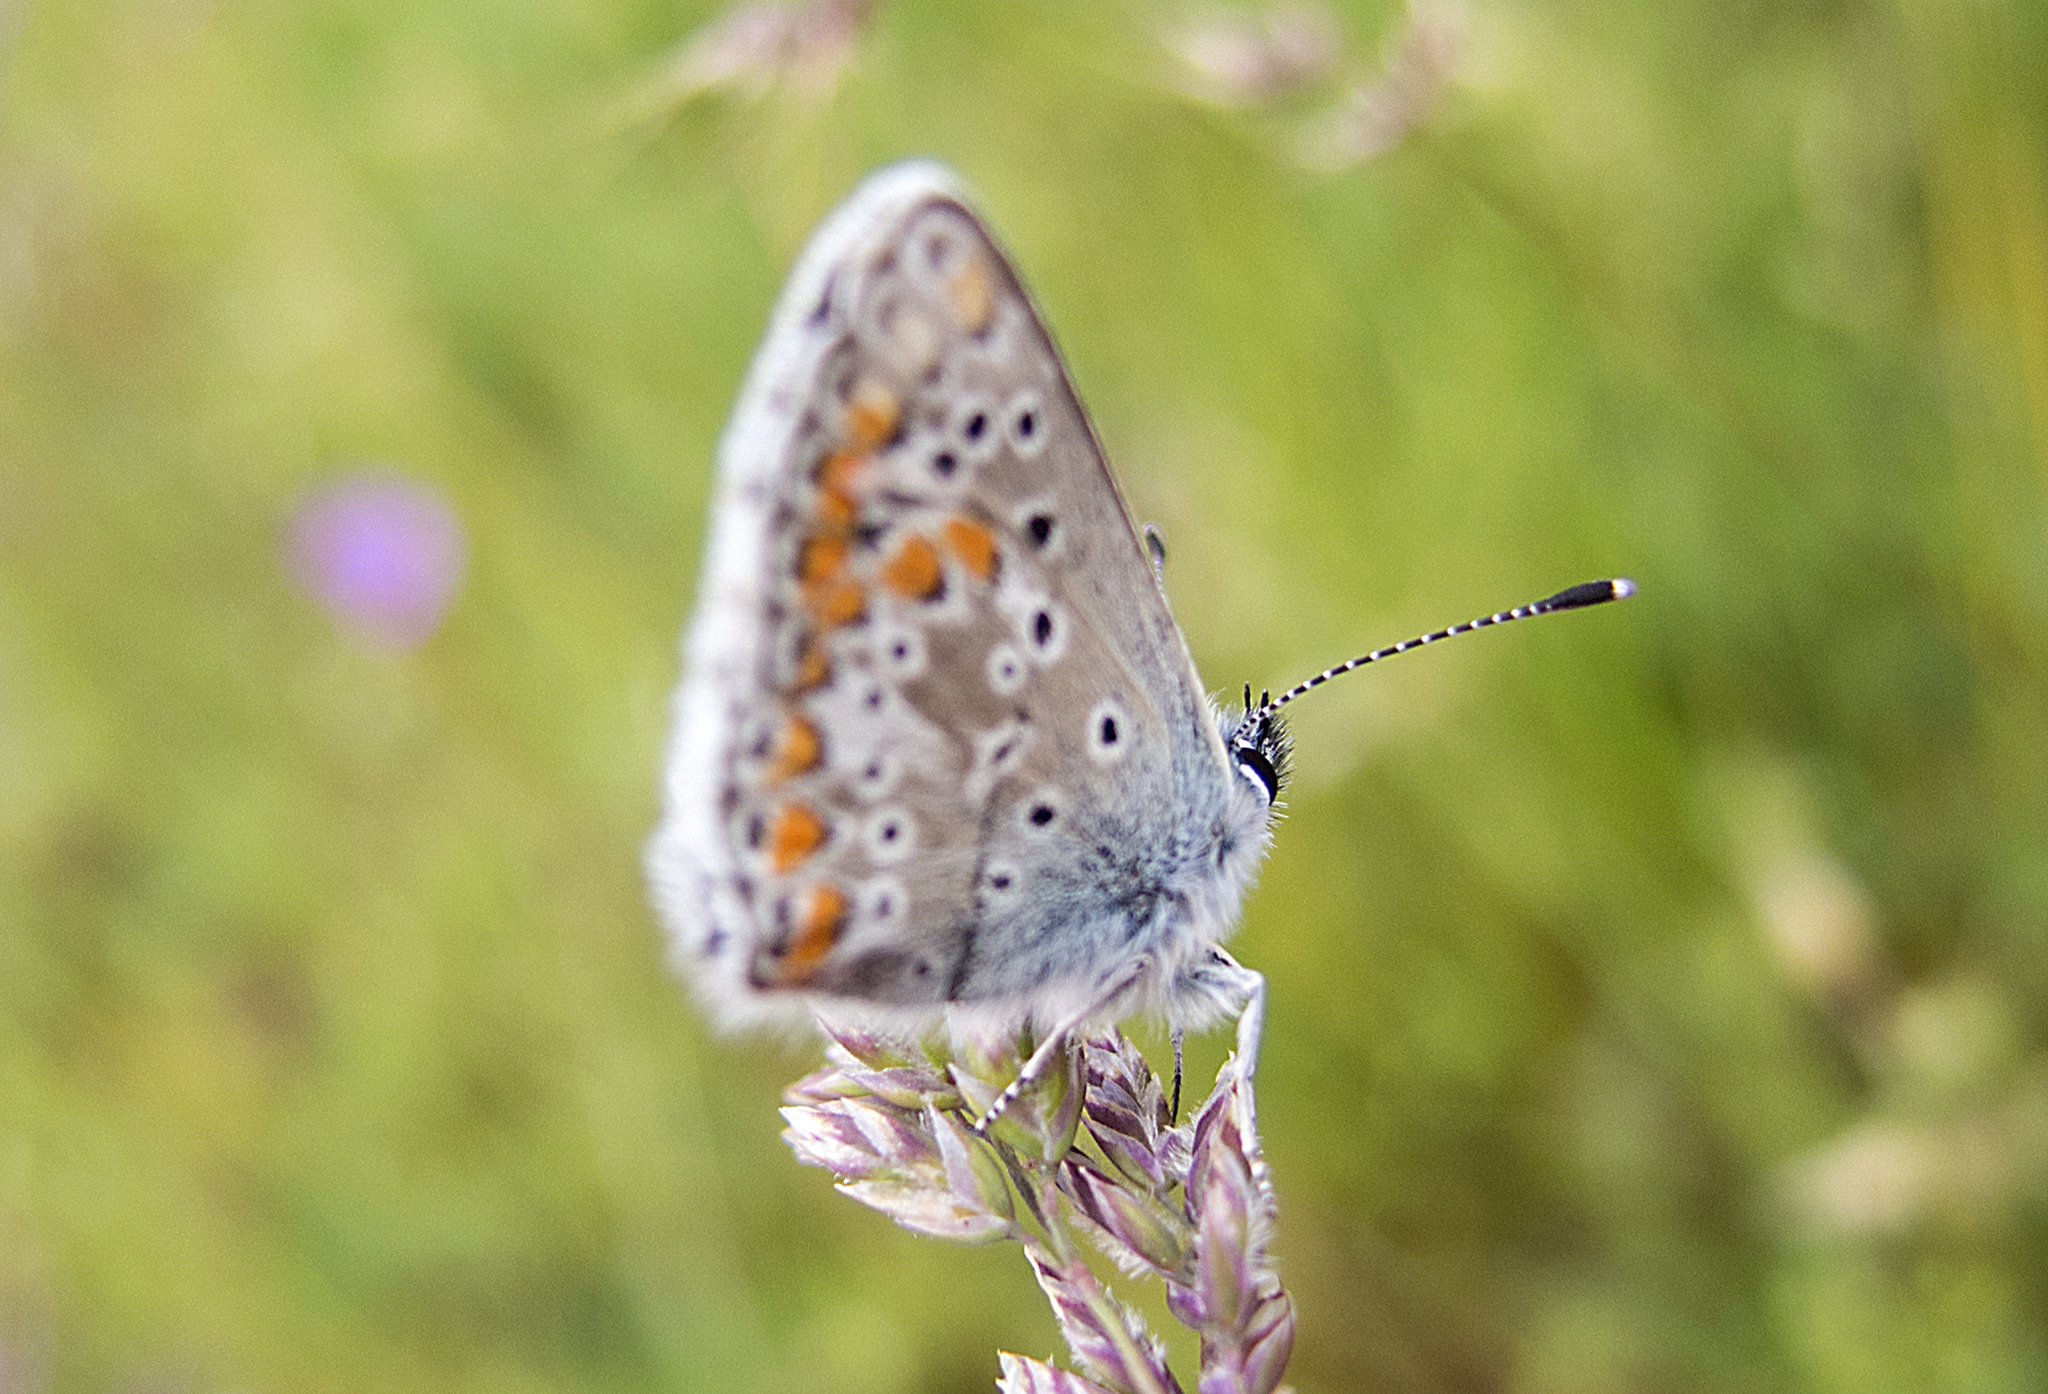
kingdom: Animalia
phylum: Arthropoda
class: Insecta
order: Lepidoptera
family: Lycaenidae
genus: Aricia
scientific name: Aricia
